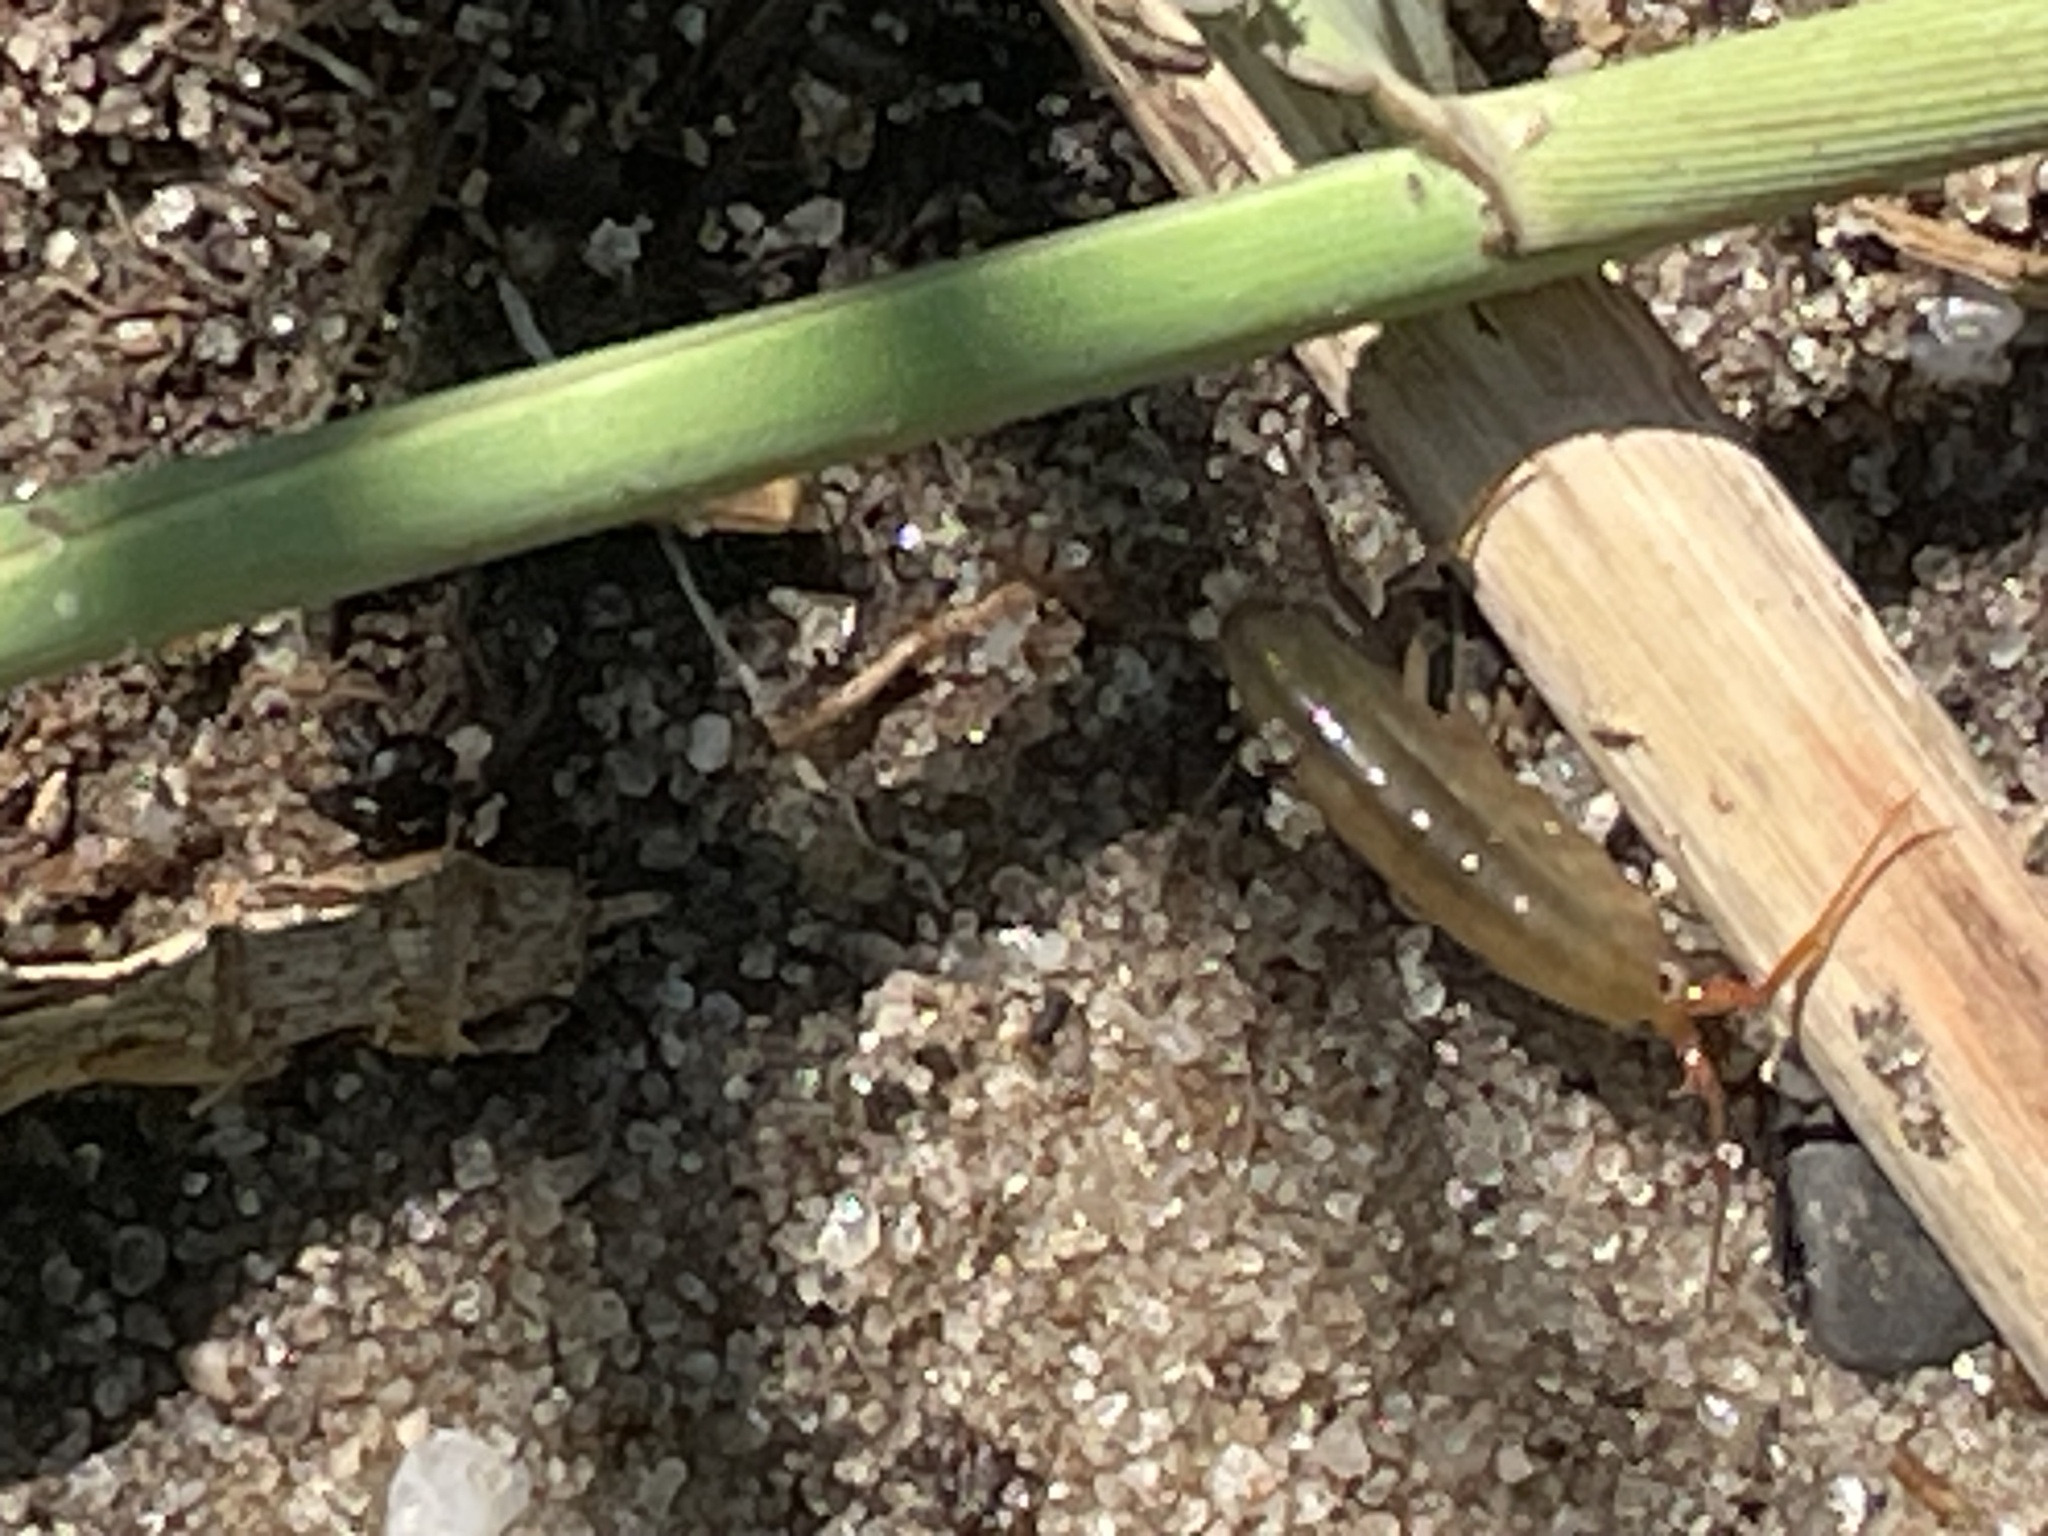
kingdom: Animalia
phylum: Arthropoda
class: Malacostraca
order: Amphipoda
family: Talitridae
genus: Speziorchestia
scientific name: Speziorchestia grillus
